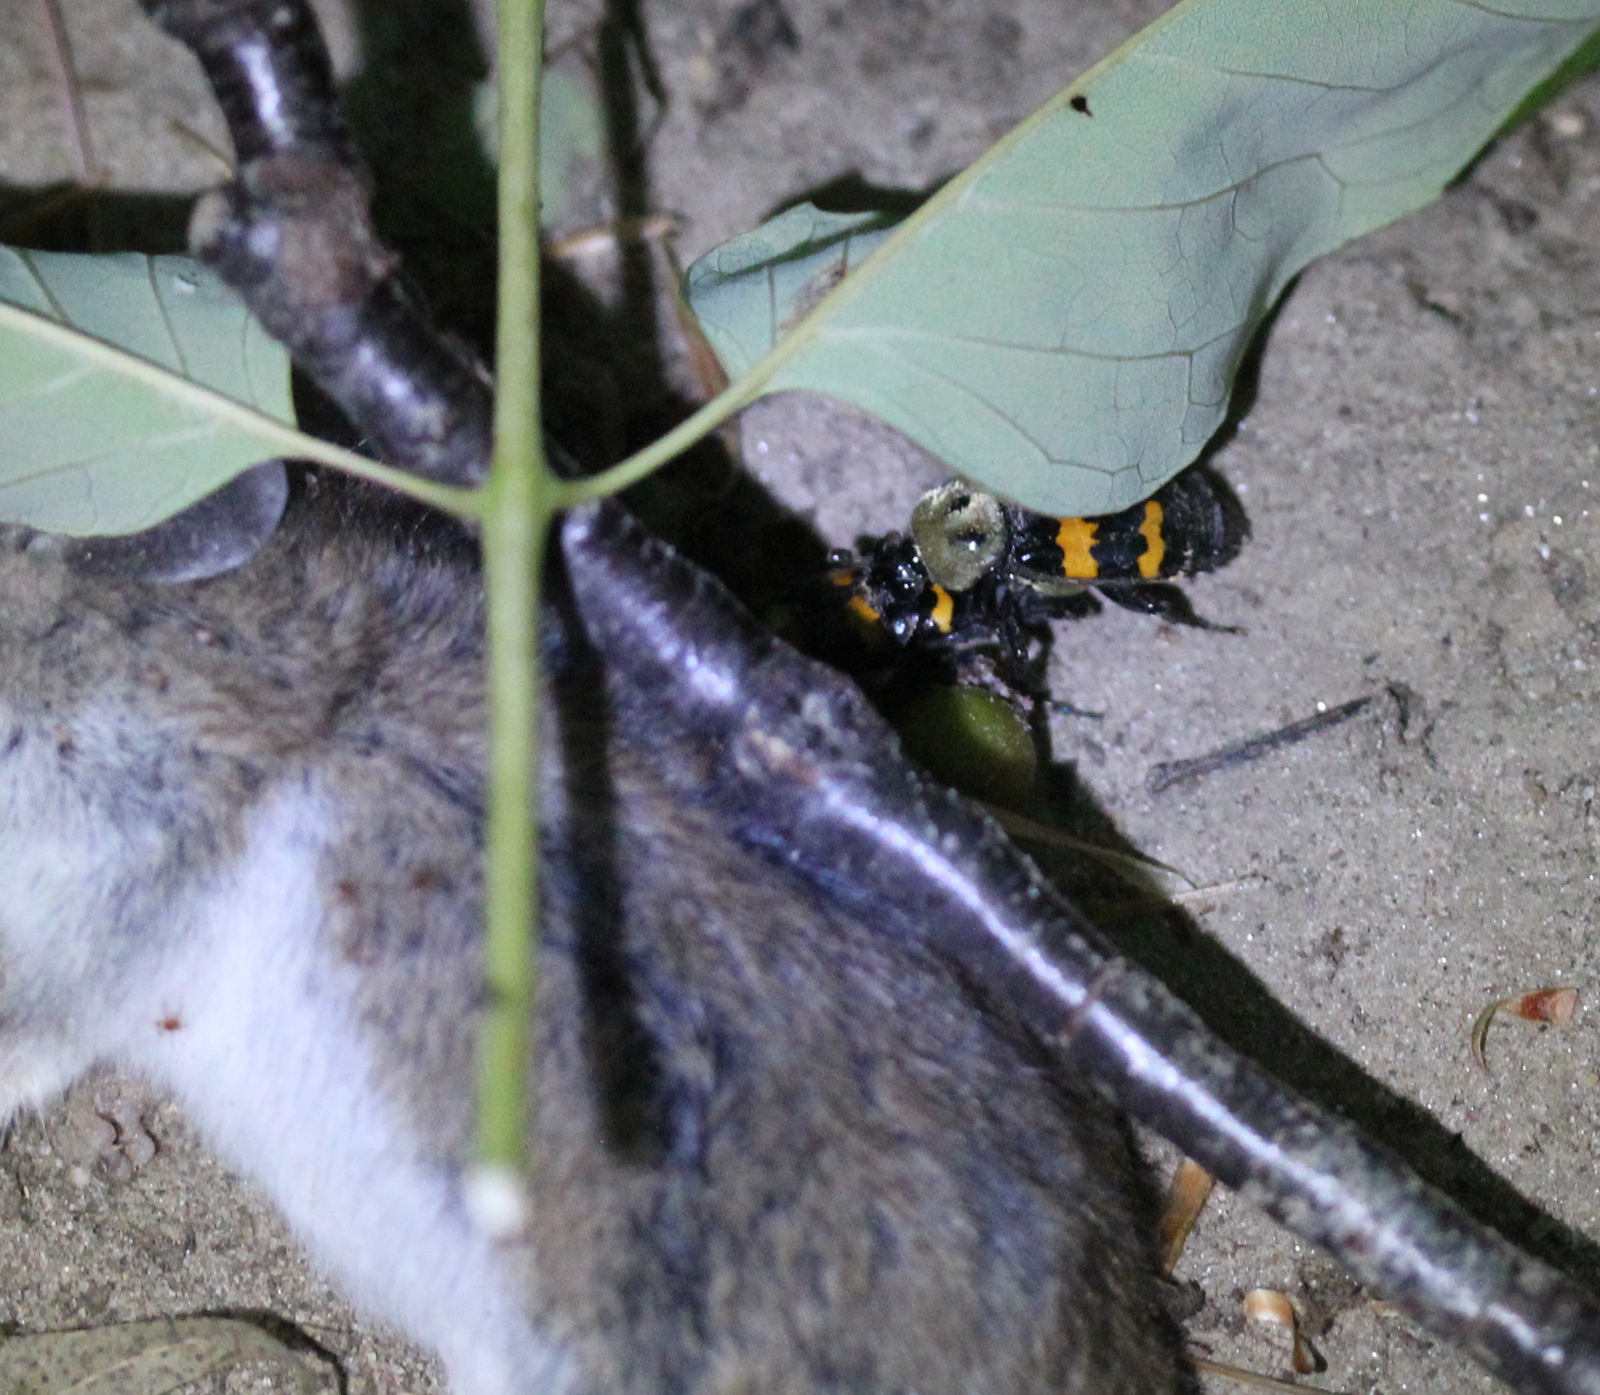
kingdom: Animalia
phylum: Arthropoda
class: Insecta
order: Coleoptera
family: Staphylinidae
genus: Nicrophorus
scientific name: Nicrophorus tomentosus
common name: Tomentose burying beetle
